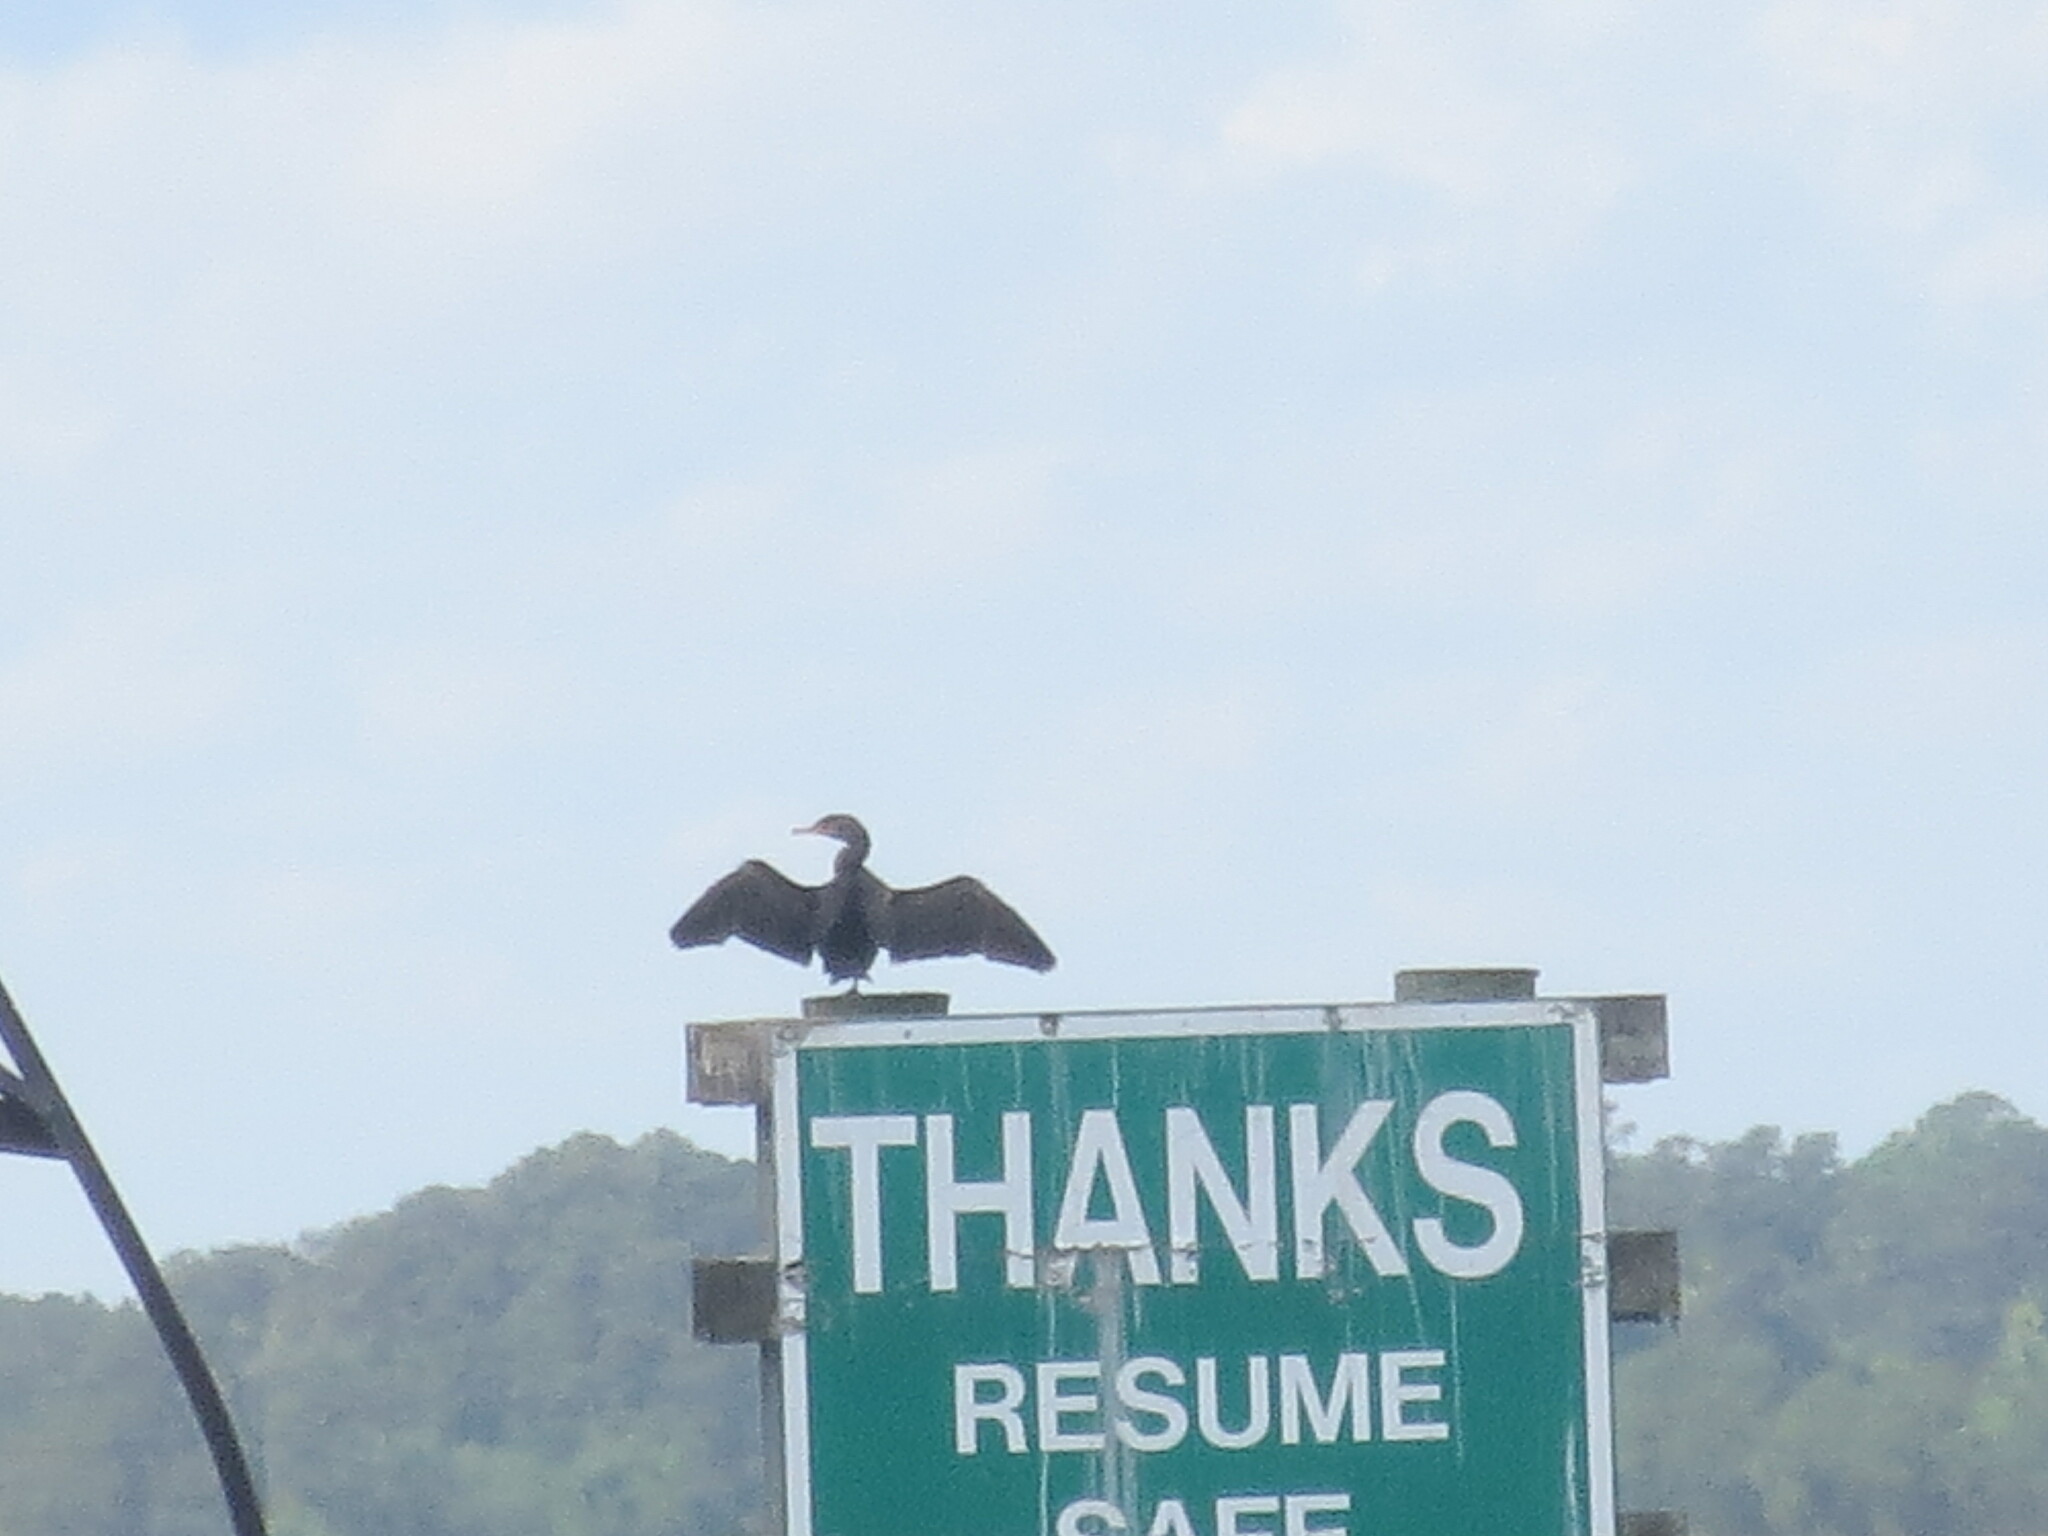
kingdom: Animalia
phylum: Chordata
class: Aves
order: Suliformes
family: Phalacrocoracidae
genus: Phalacrocorax
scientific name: Phalacrocorax auritus
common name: Double-crested cormorant
